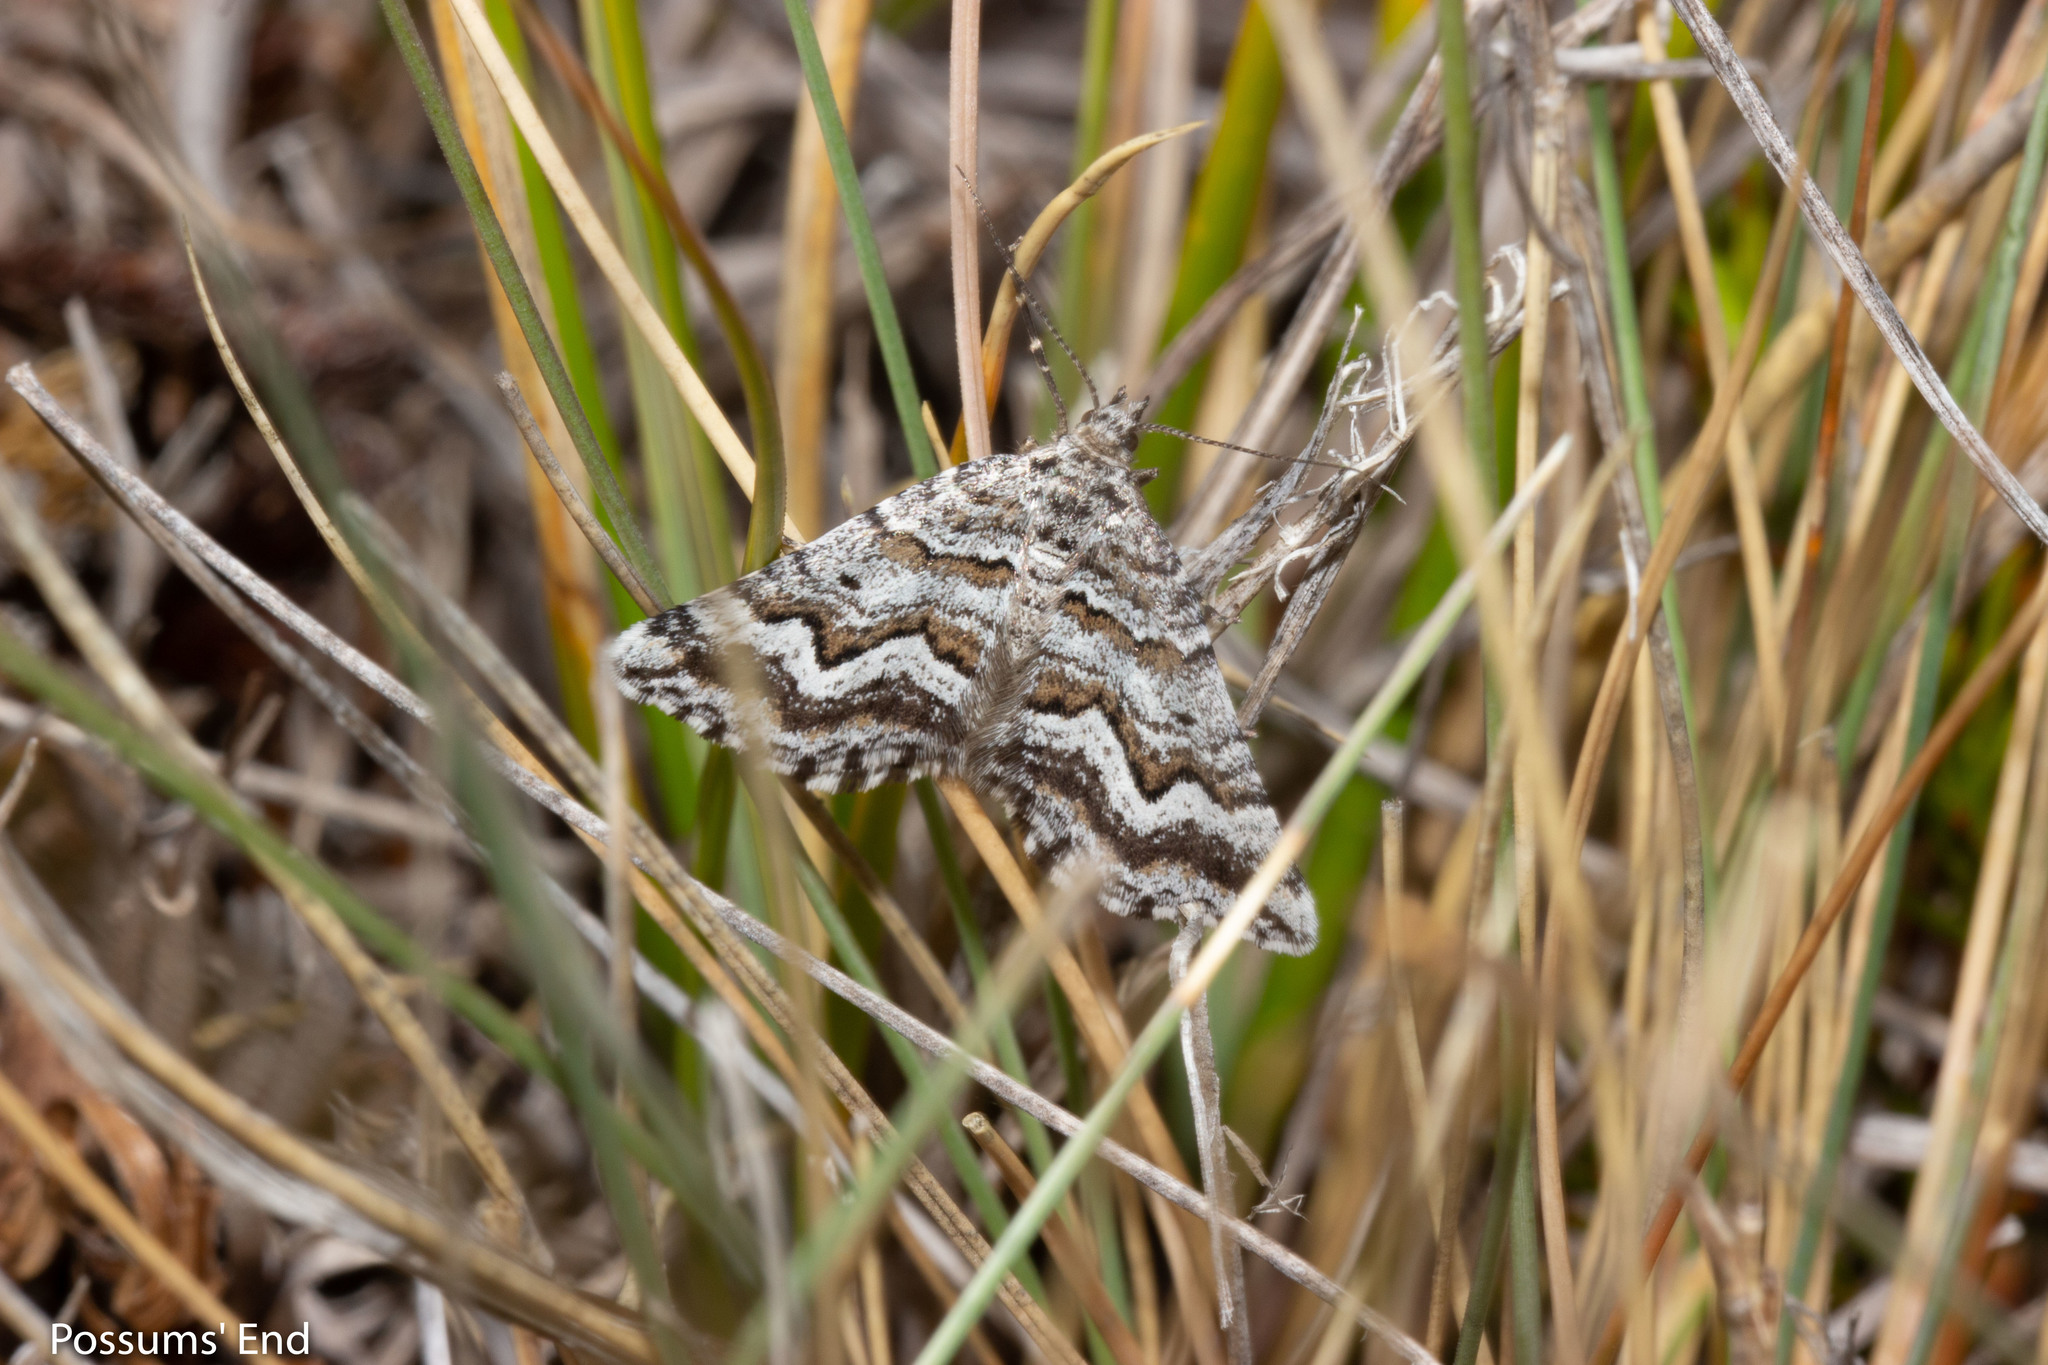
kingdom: Animalia
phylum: Arthropoda
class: Insecta
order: Lepidoptera
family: Geometridae
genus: Aponotoreas
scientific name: Aponotoreas anthracias
